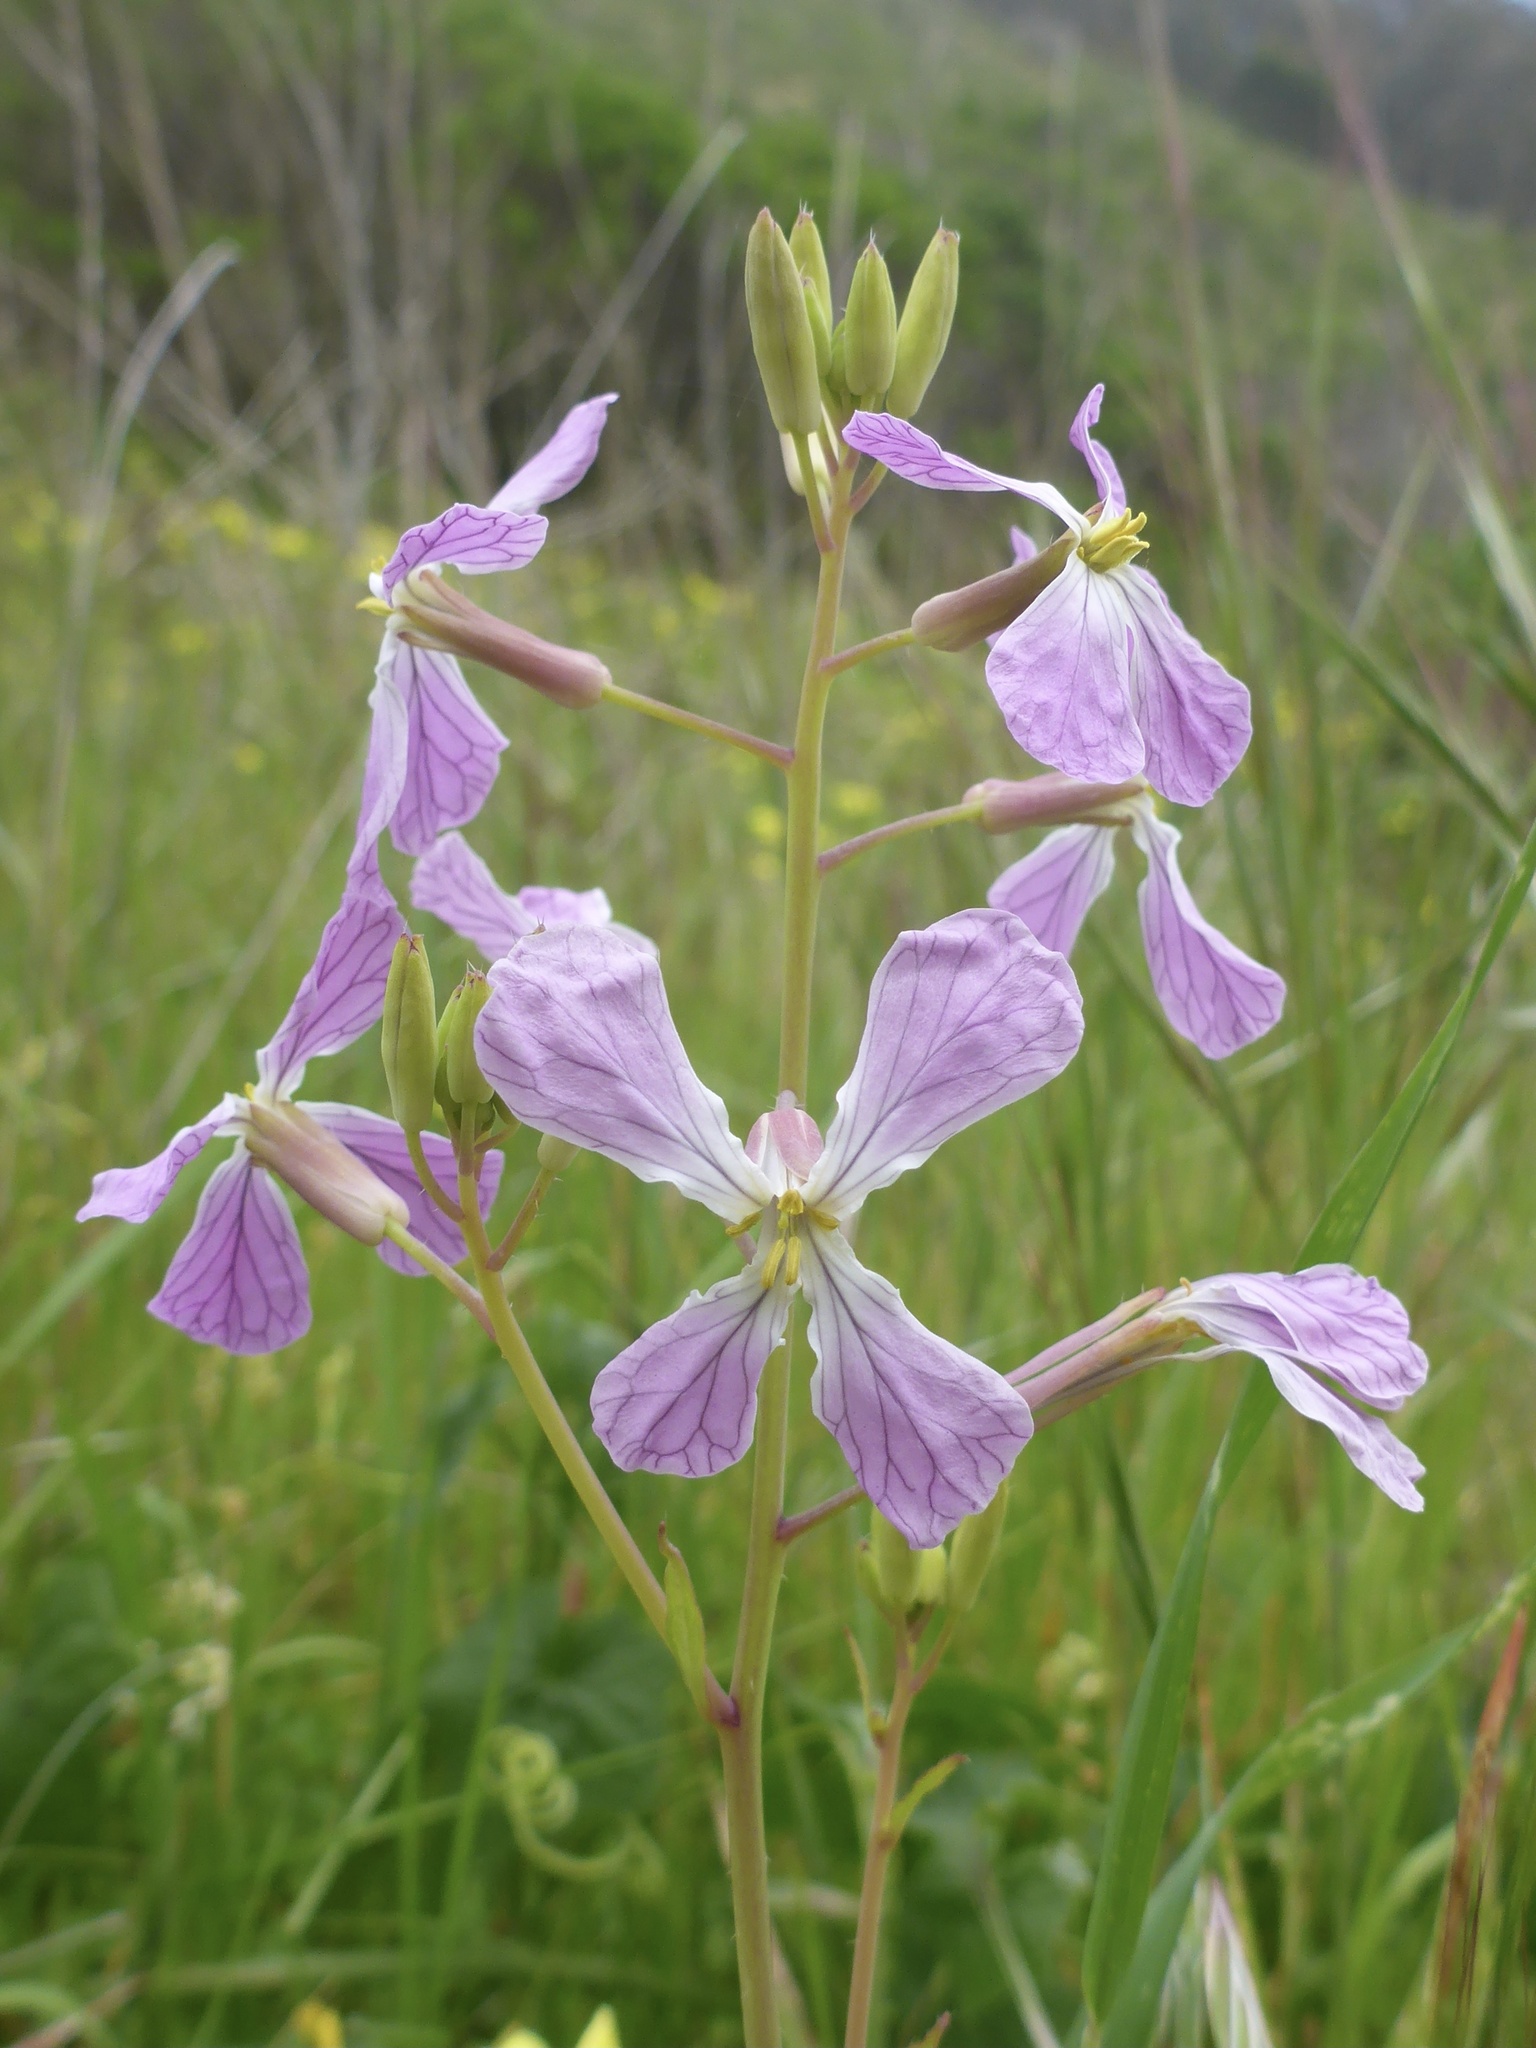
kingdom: Plantae
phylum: Tracheophyta
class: Magnoliopsida
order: Brassicales
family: Brassicaceae
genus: Raphanus
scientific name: Raphanus sativus
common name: Cultivated radish
